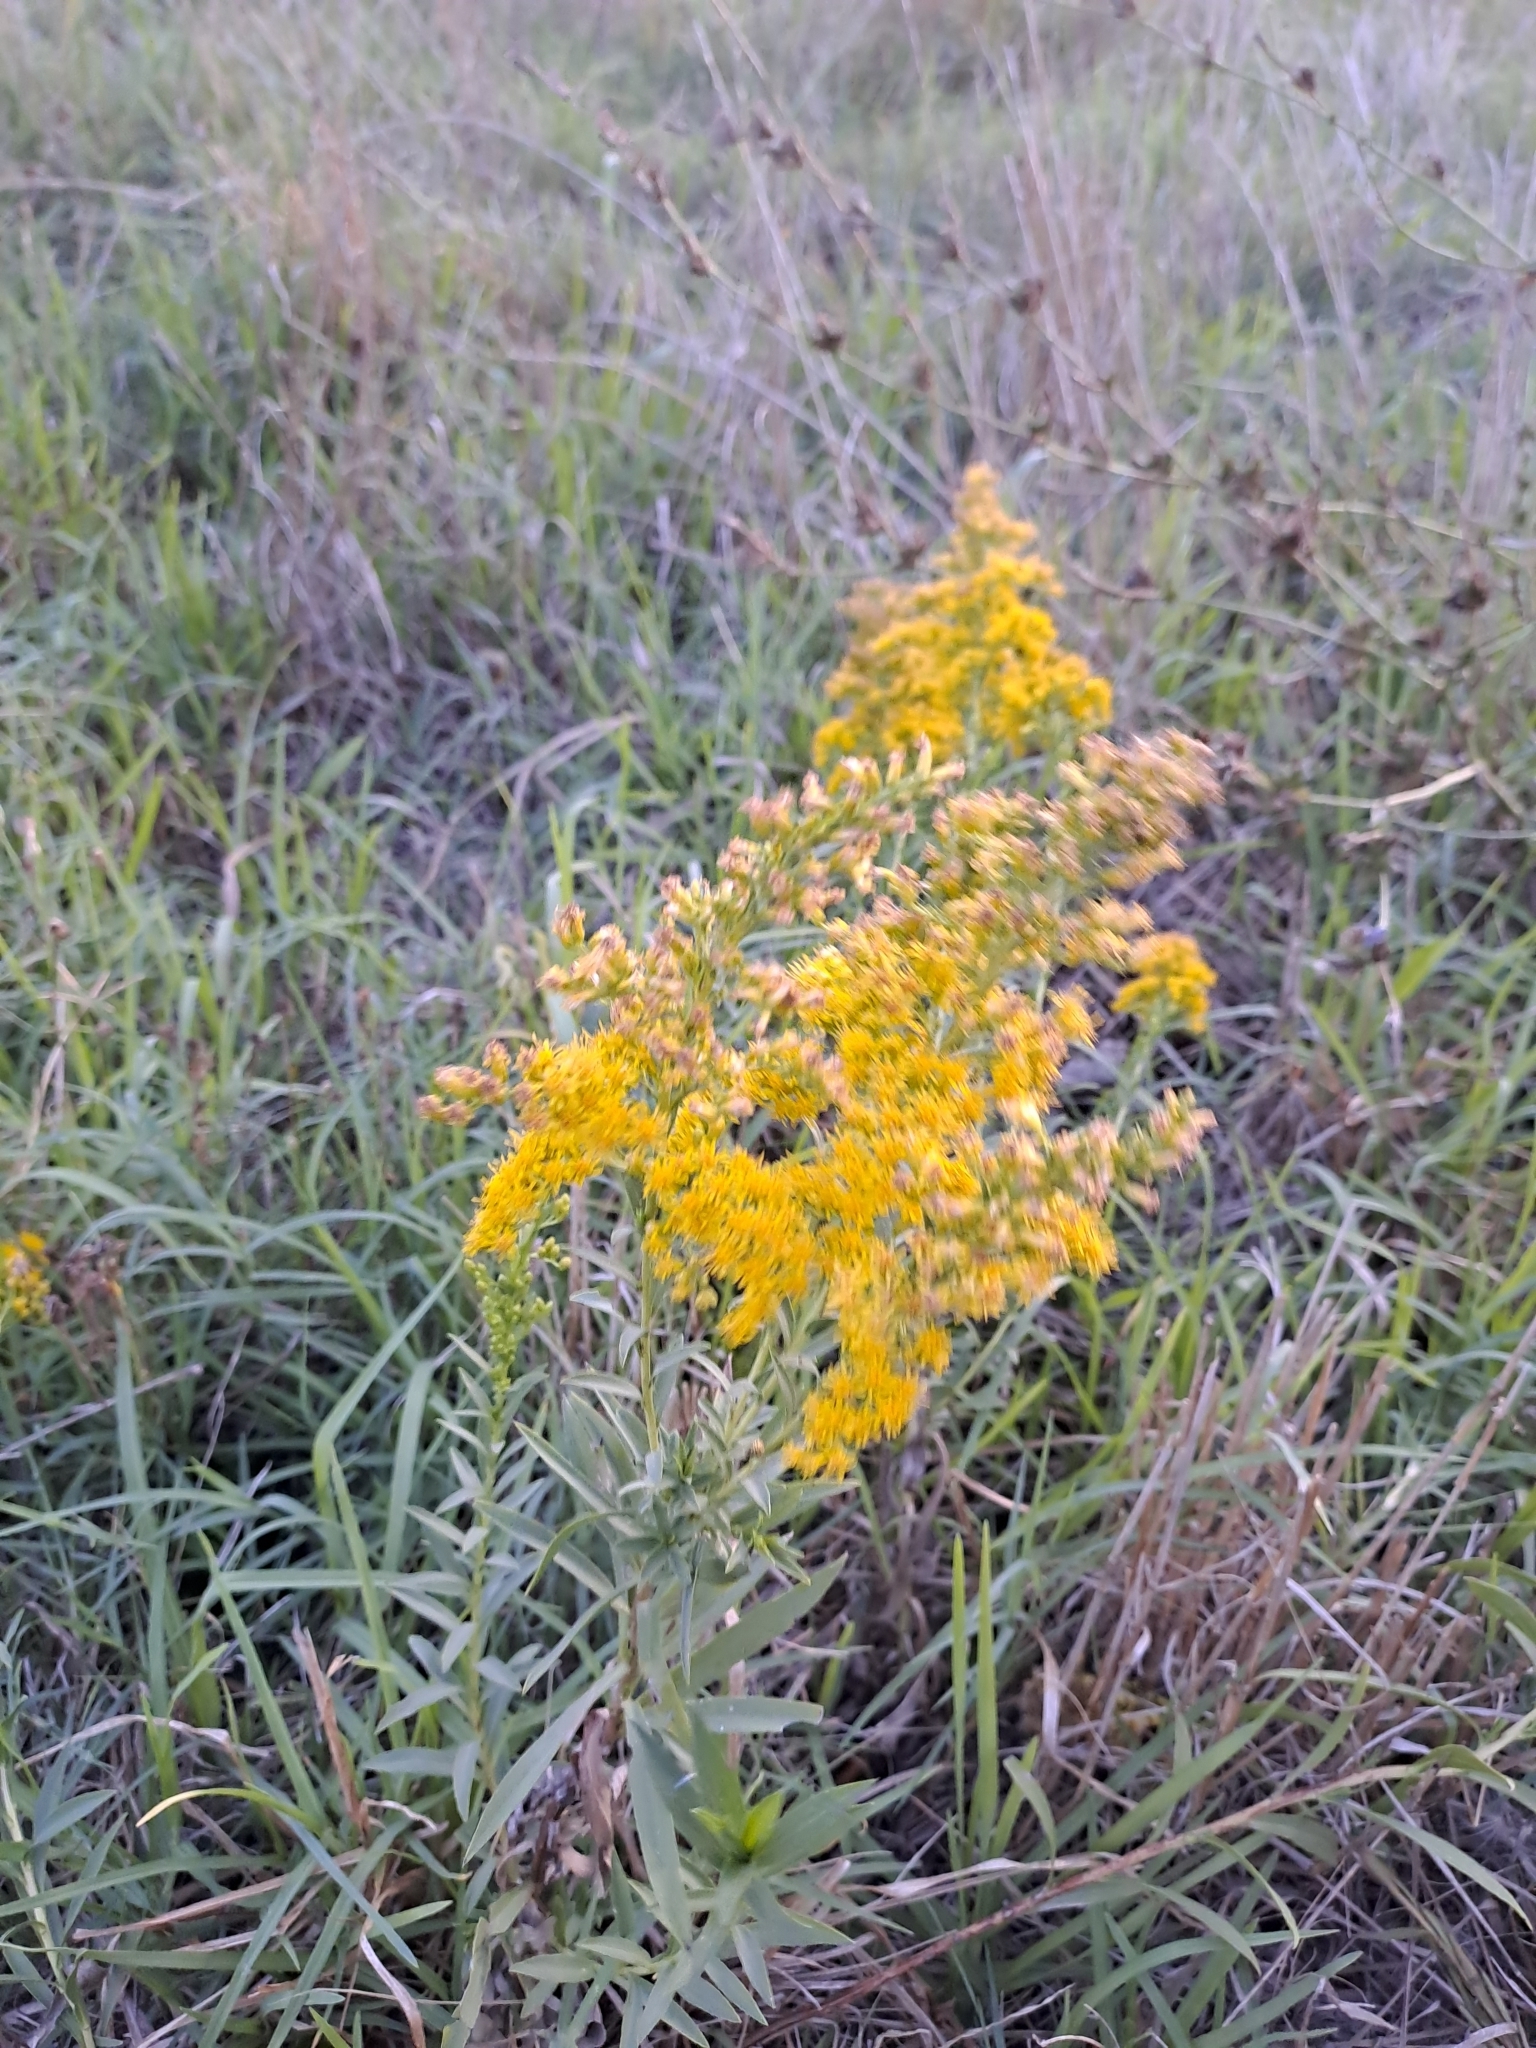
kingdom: Plantae
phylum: Tracheophyta
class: Magnoliopsida
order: Asterales
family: Asteraceae
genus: Solidago
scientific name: Solidago chilensis
